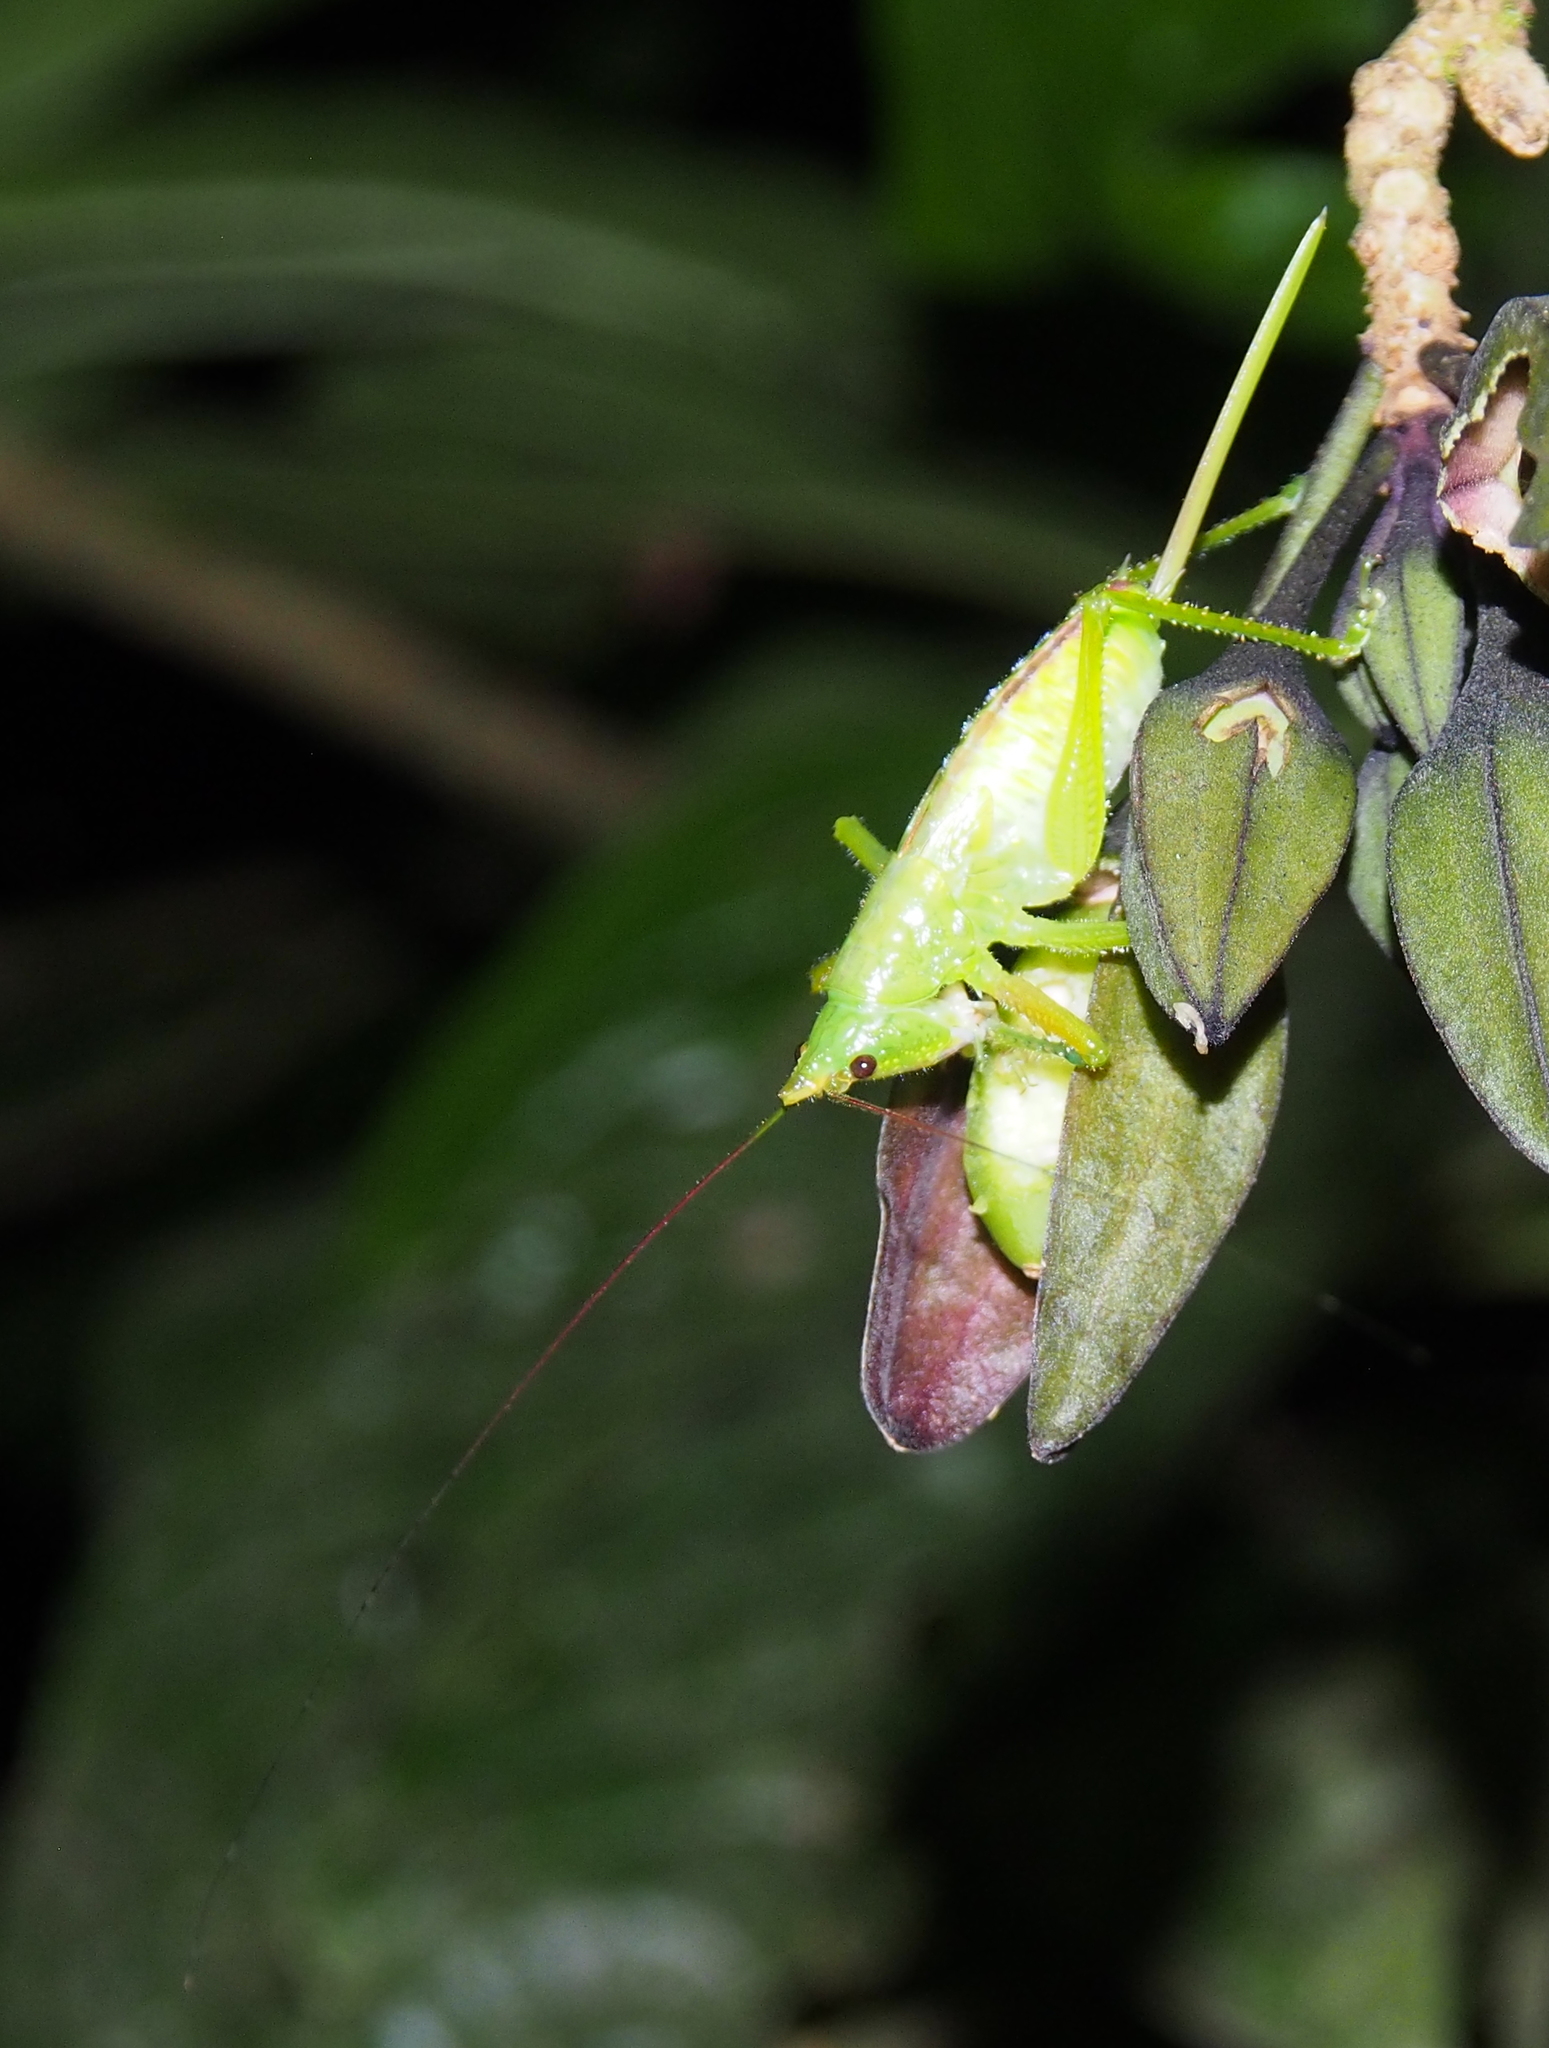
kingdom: Animalia
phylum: Arthropoda
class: Insecta
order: Orthoptera
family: Tettigoniidae
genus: Copiphora
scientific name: Copiphora brevicauda
